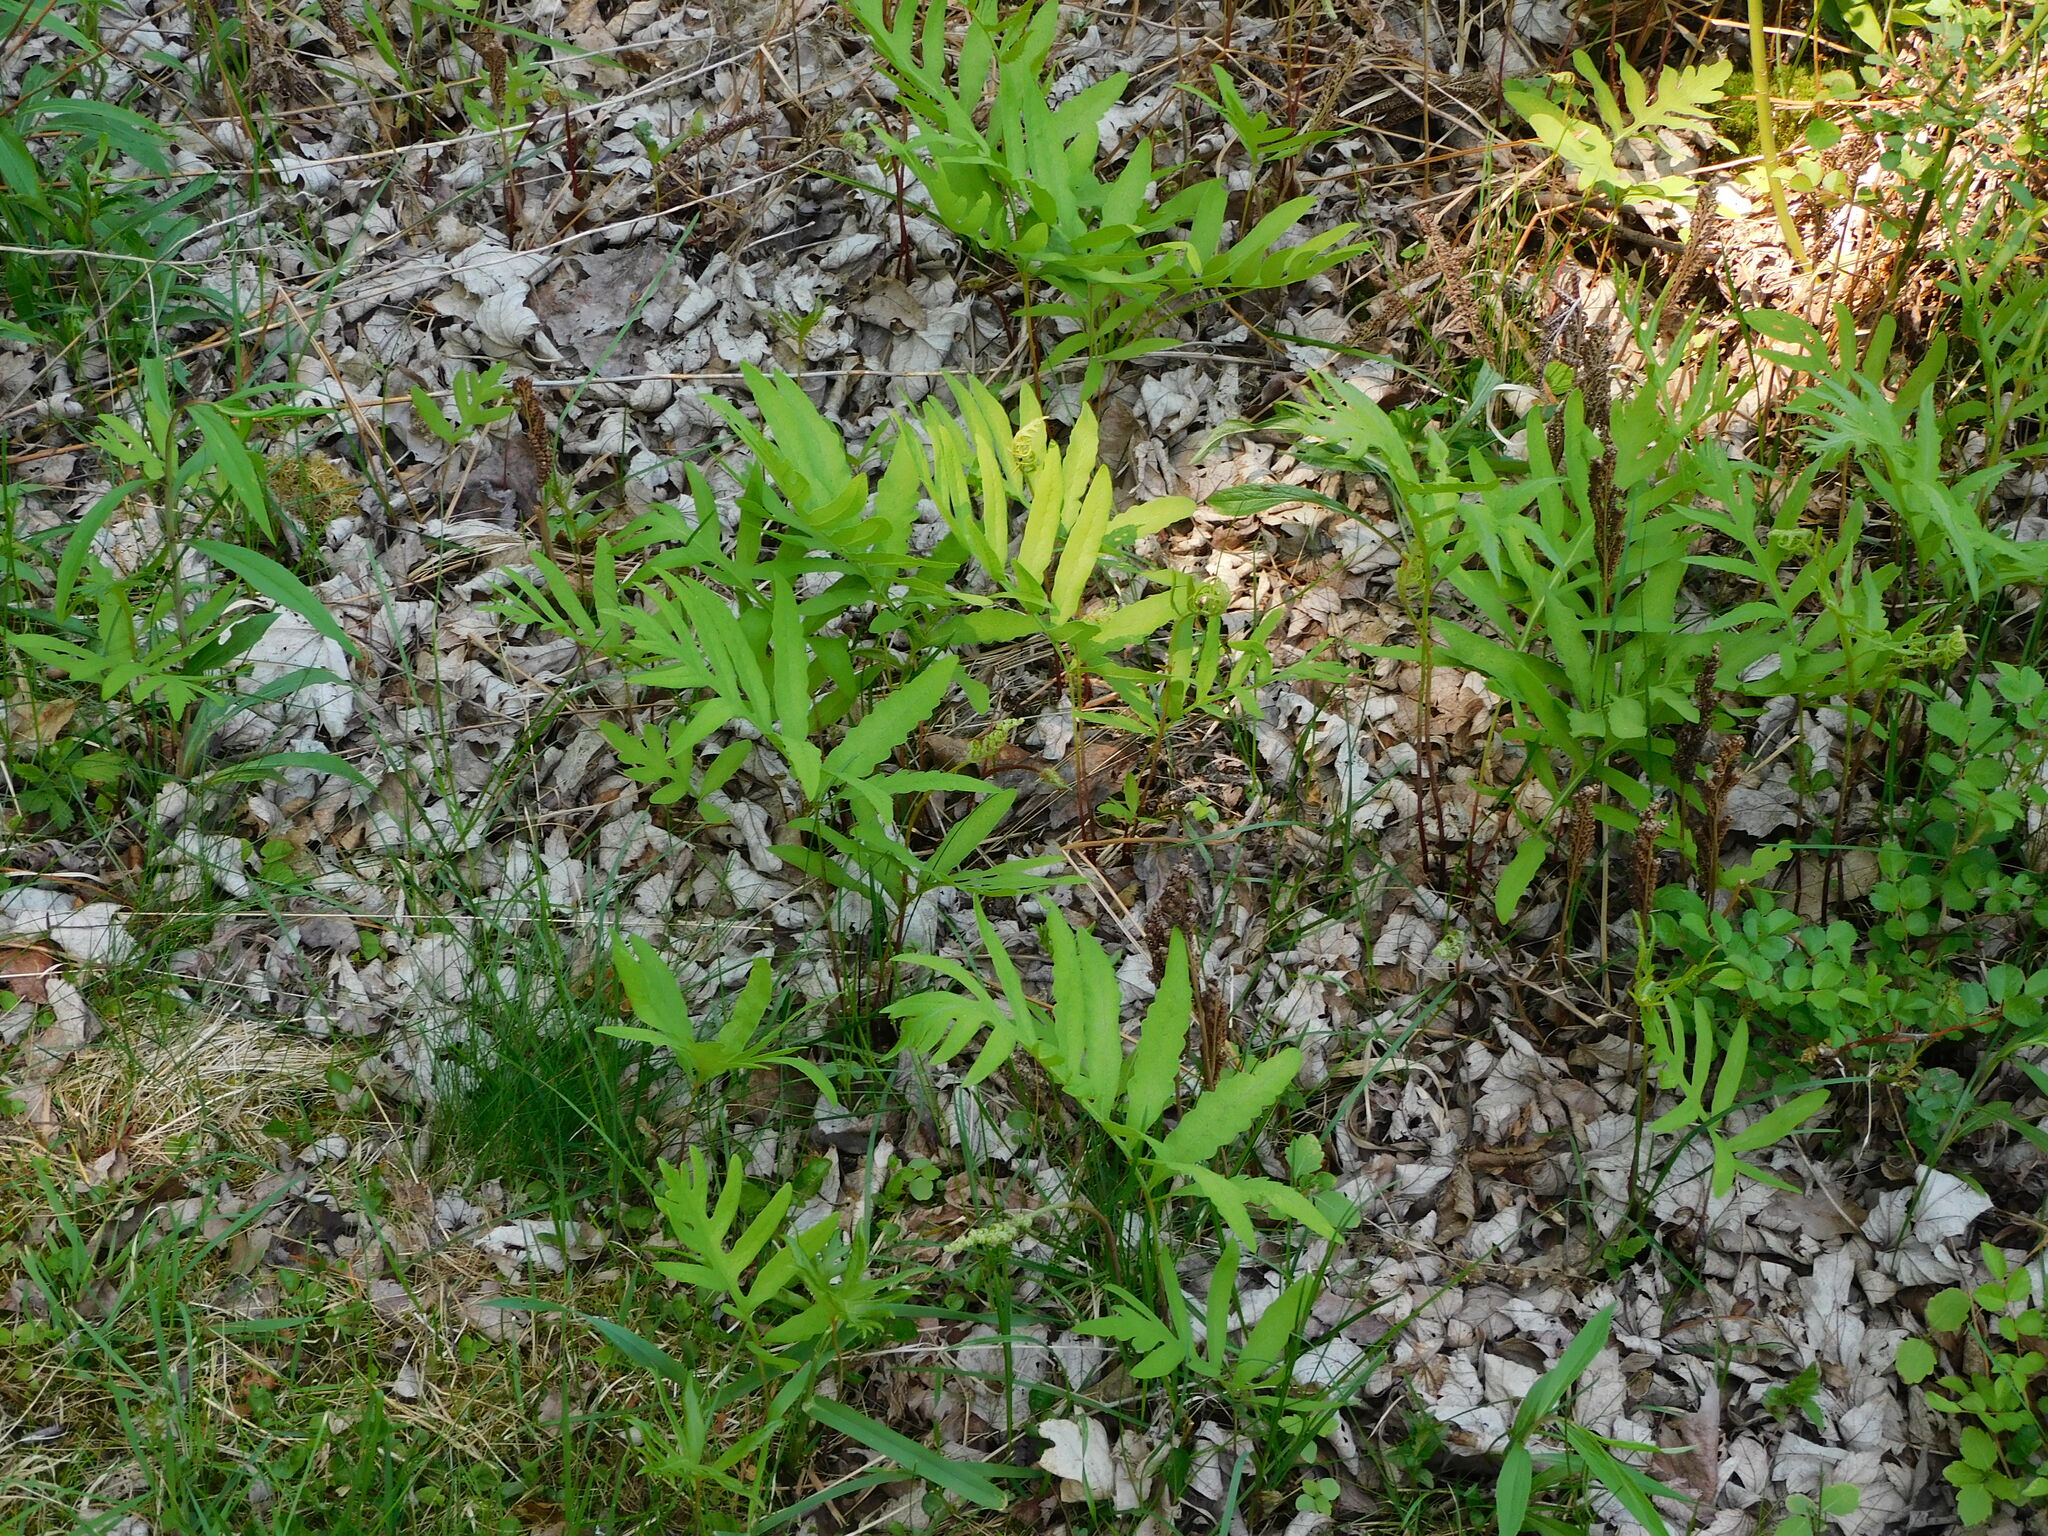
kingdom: Plantae
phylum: Tracheophyta
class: Polypodiopsida
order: Polypodiales
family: Onocleaceae
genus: Onoclea
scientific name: Onoclea sensibilis
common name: Sensitive fern
